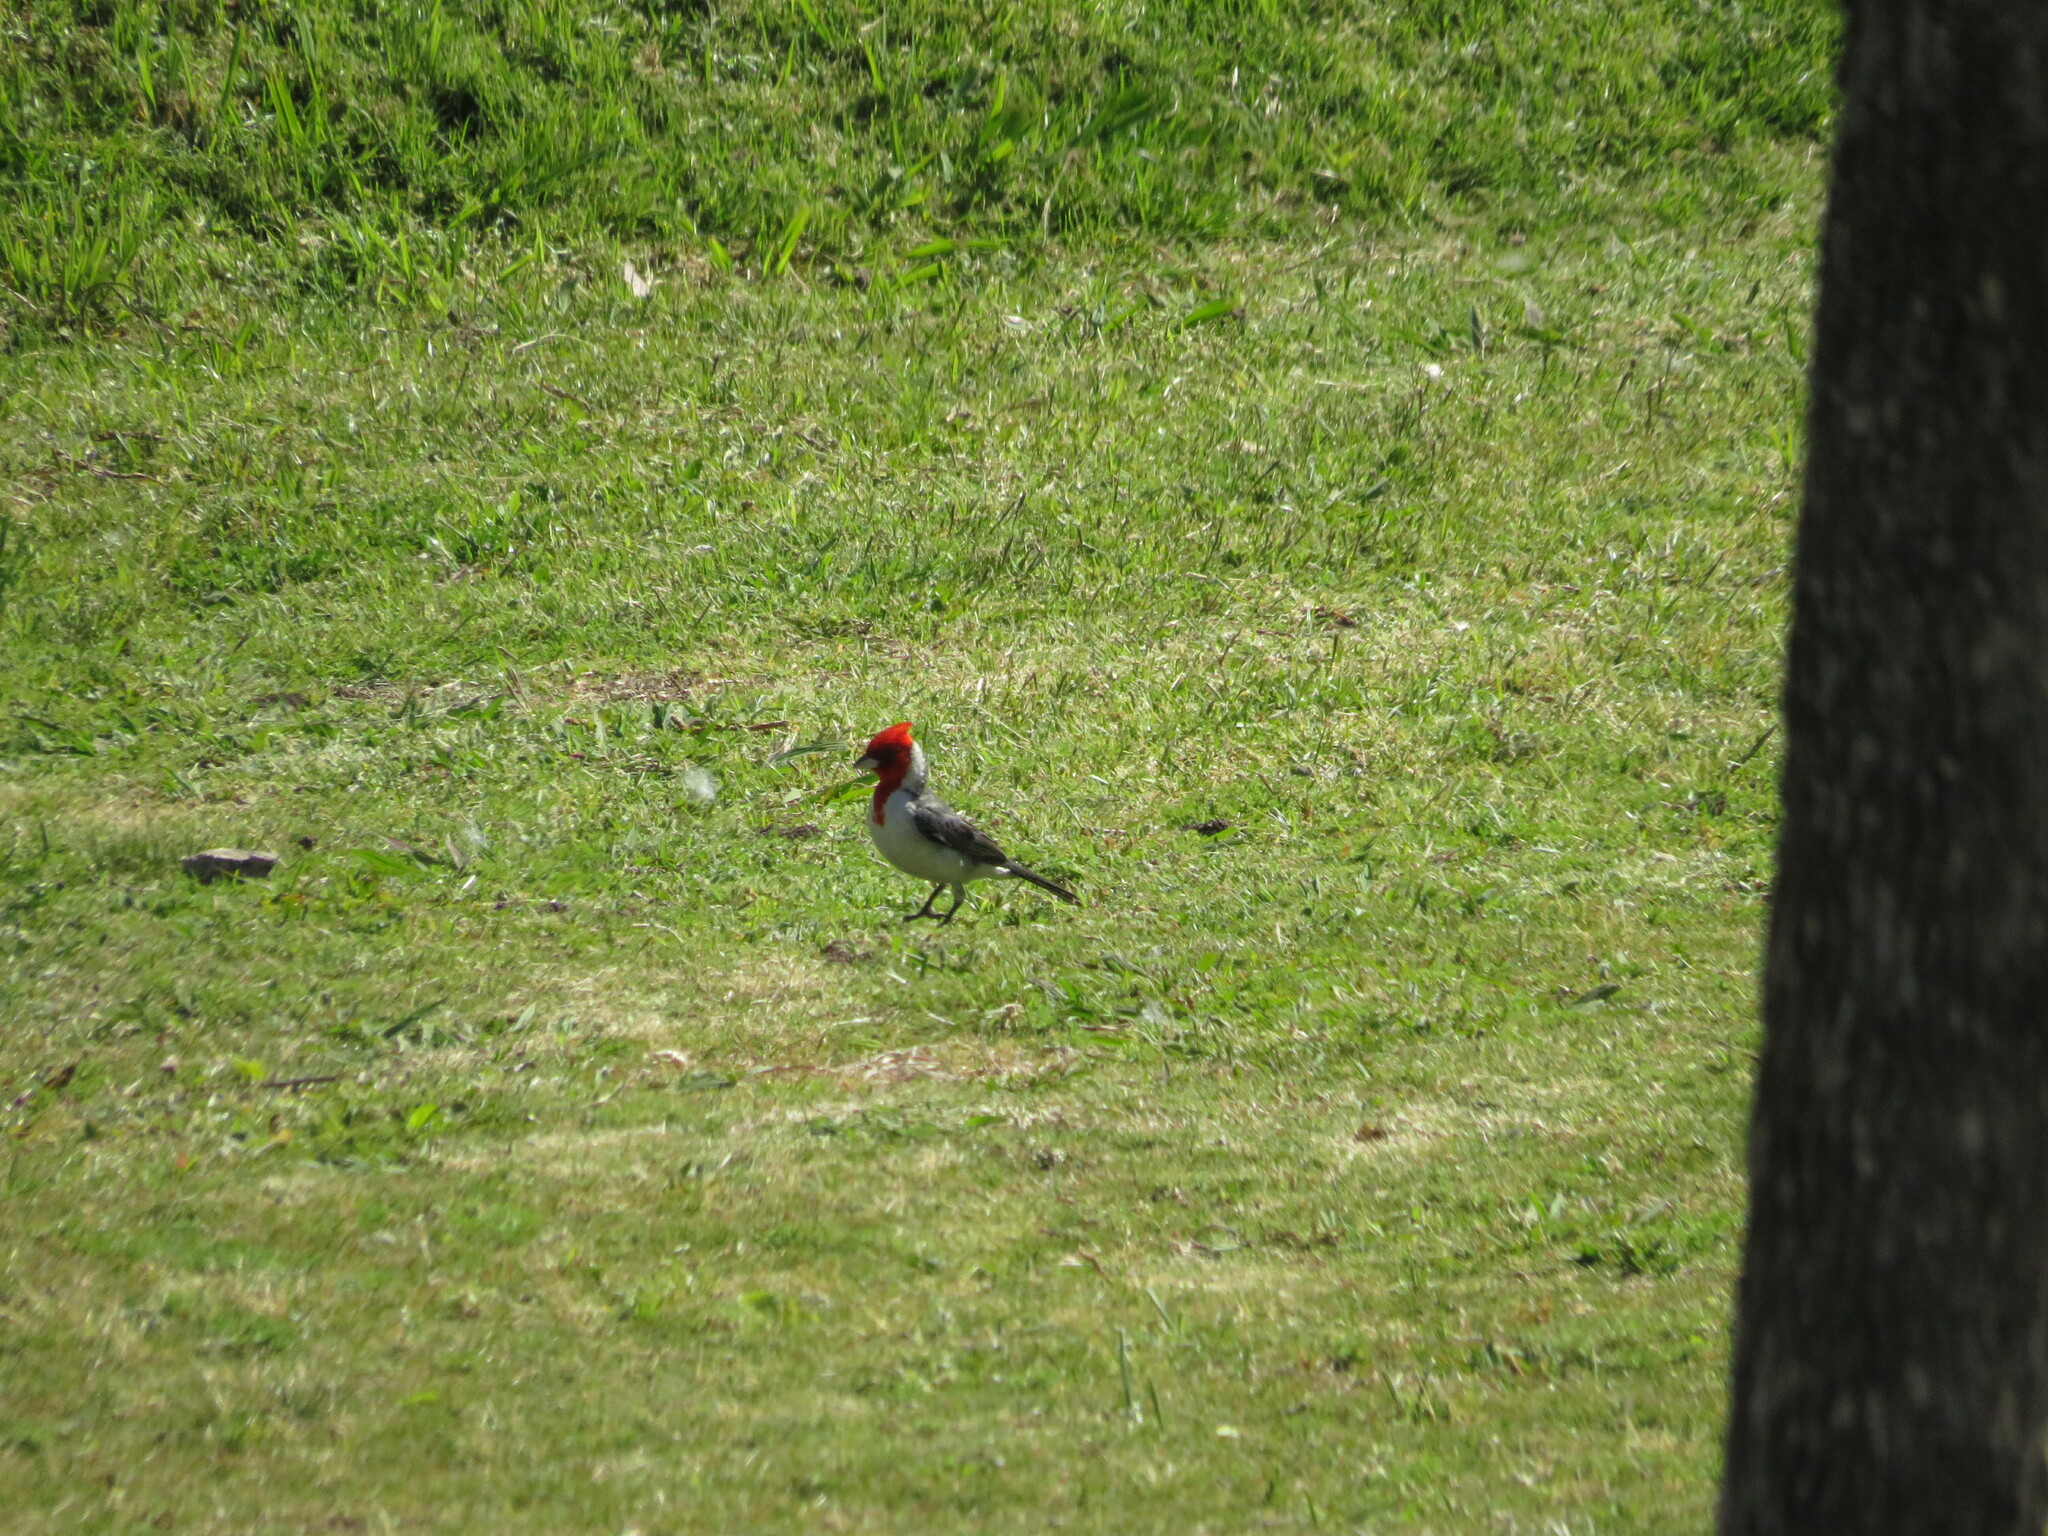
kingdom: Animalia
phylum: Chordata
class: Aves
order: Passeriformes
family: Thraupidae
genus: Paroaria
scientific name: Paroaria coronata
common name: Red-crested cardinal
